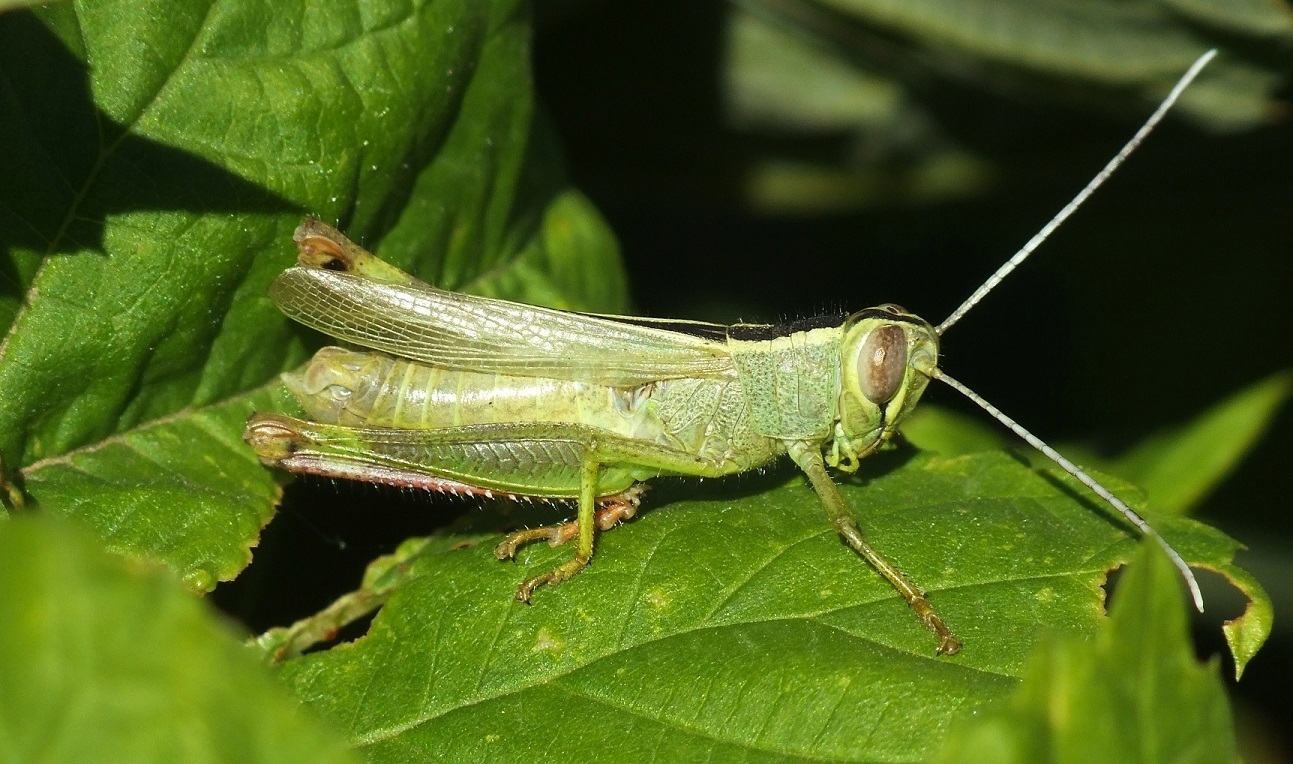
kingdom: Animalia
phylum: Arthropoda
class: Insecta
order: Orthoptera
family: Acrididae
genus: Heteracris
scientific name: Heteracris pterosticha
